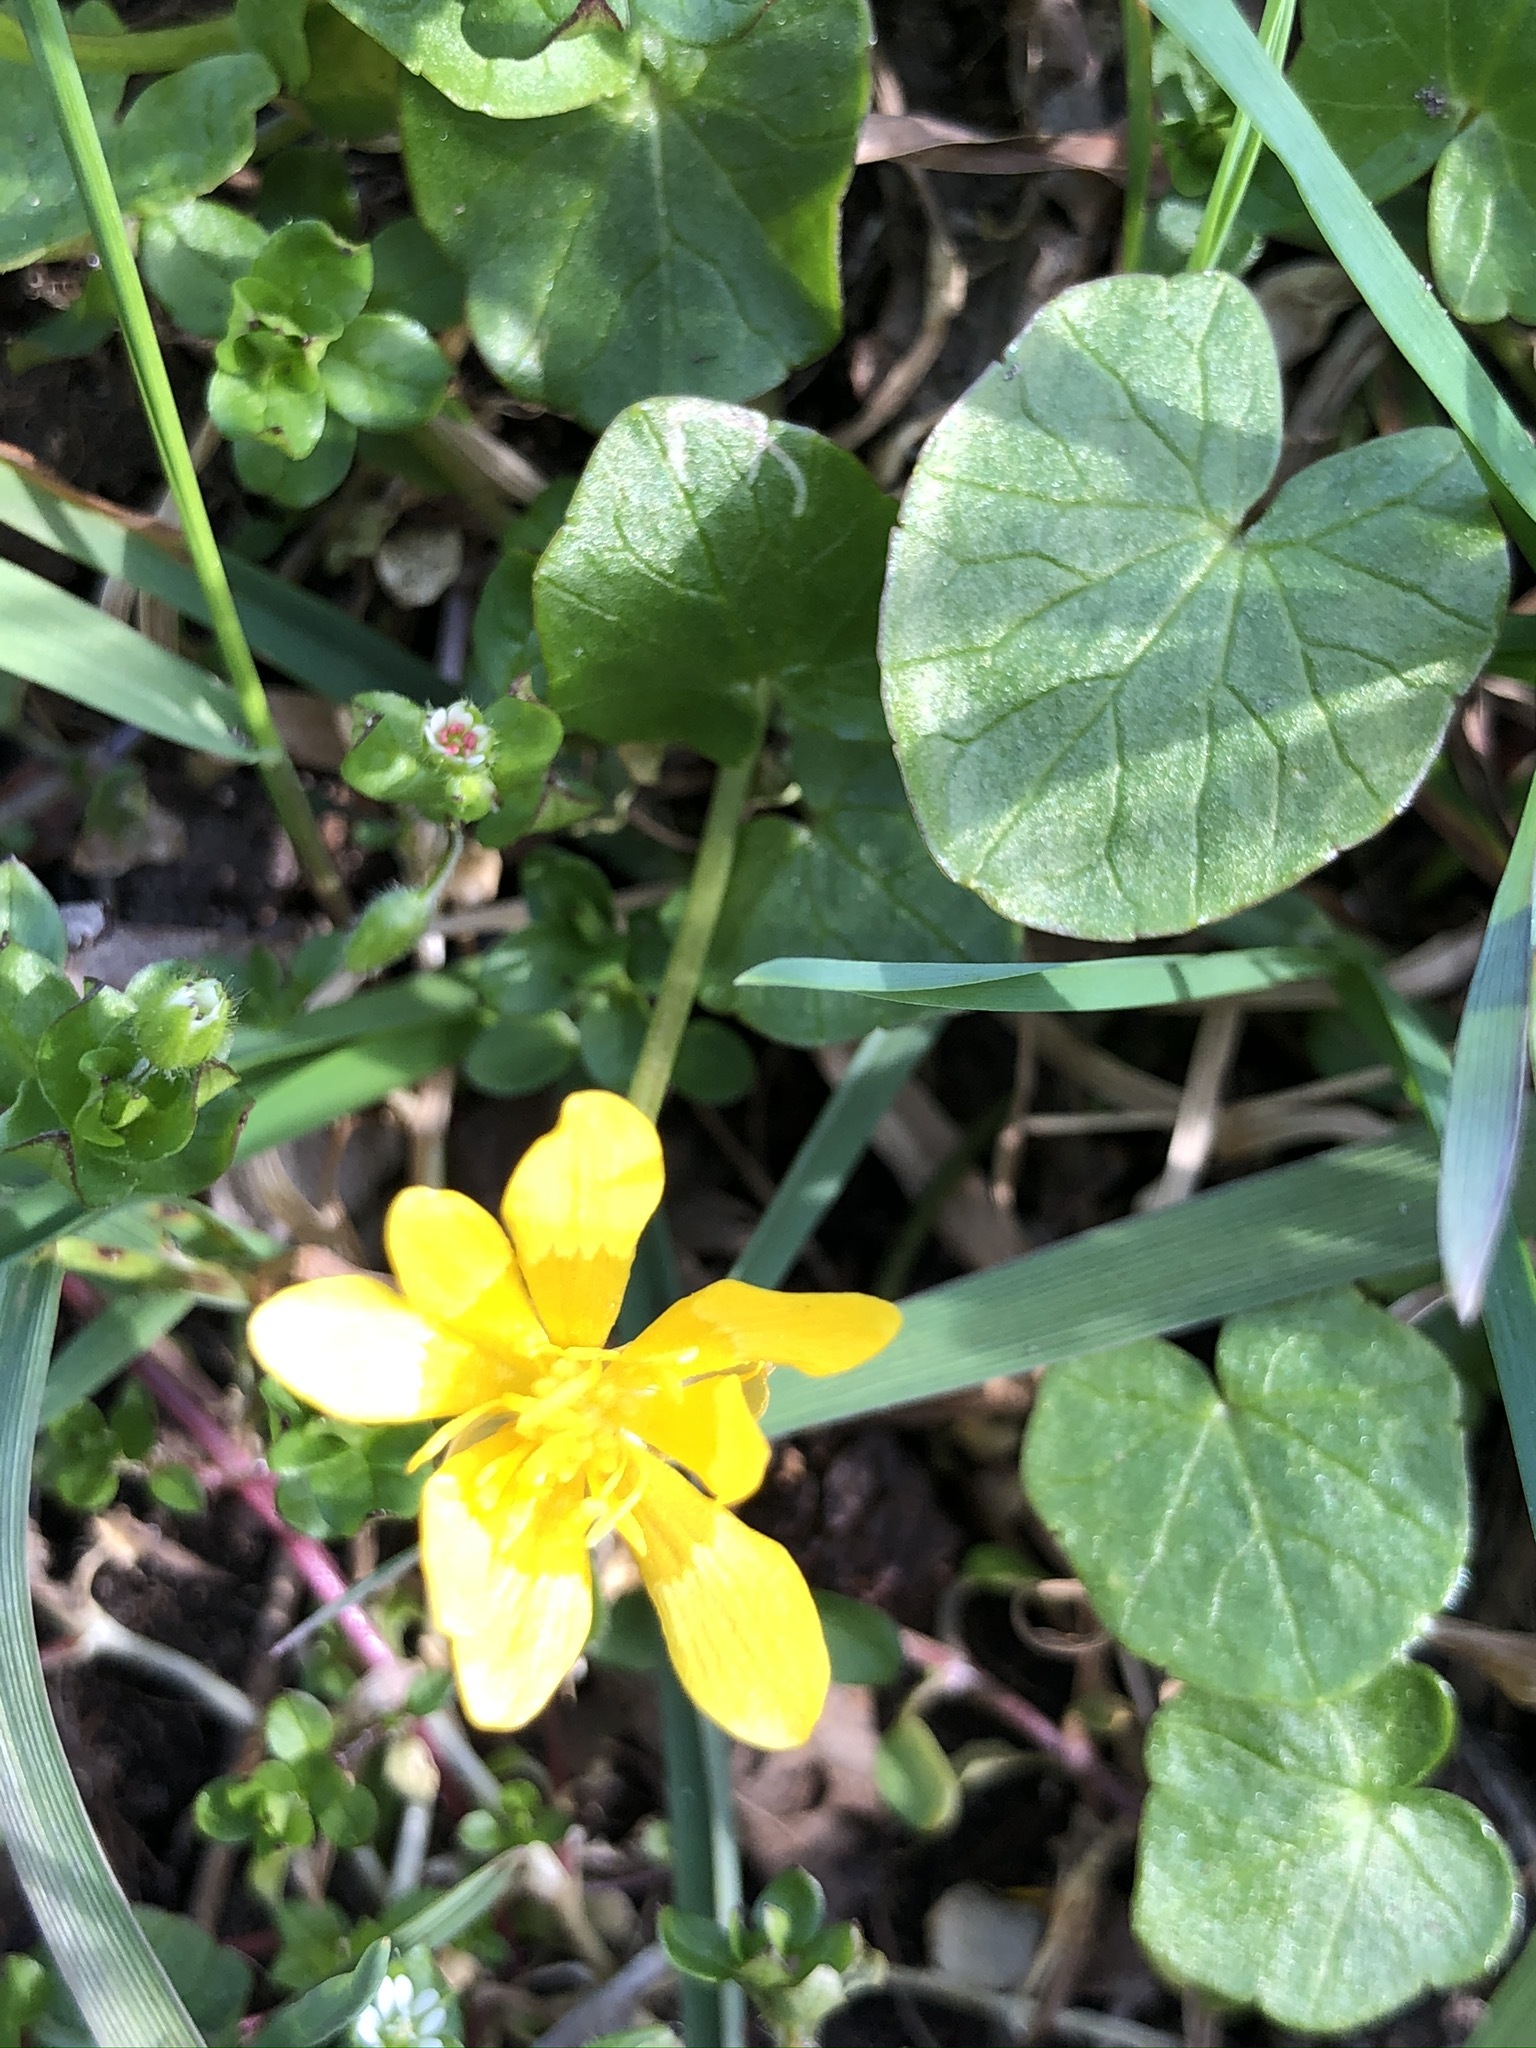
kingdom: Plantae
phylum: Tracheophyta
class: Magnoliopsida
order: Ranunculales
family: Ranunculaceae
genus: Ficaria
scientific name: Ficaria verna
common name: Lesser celandine
